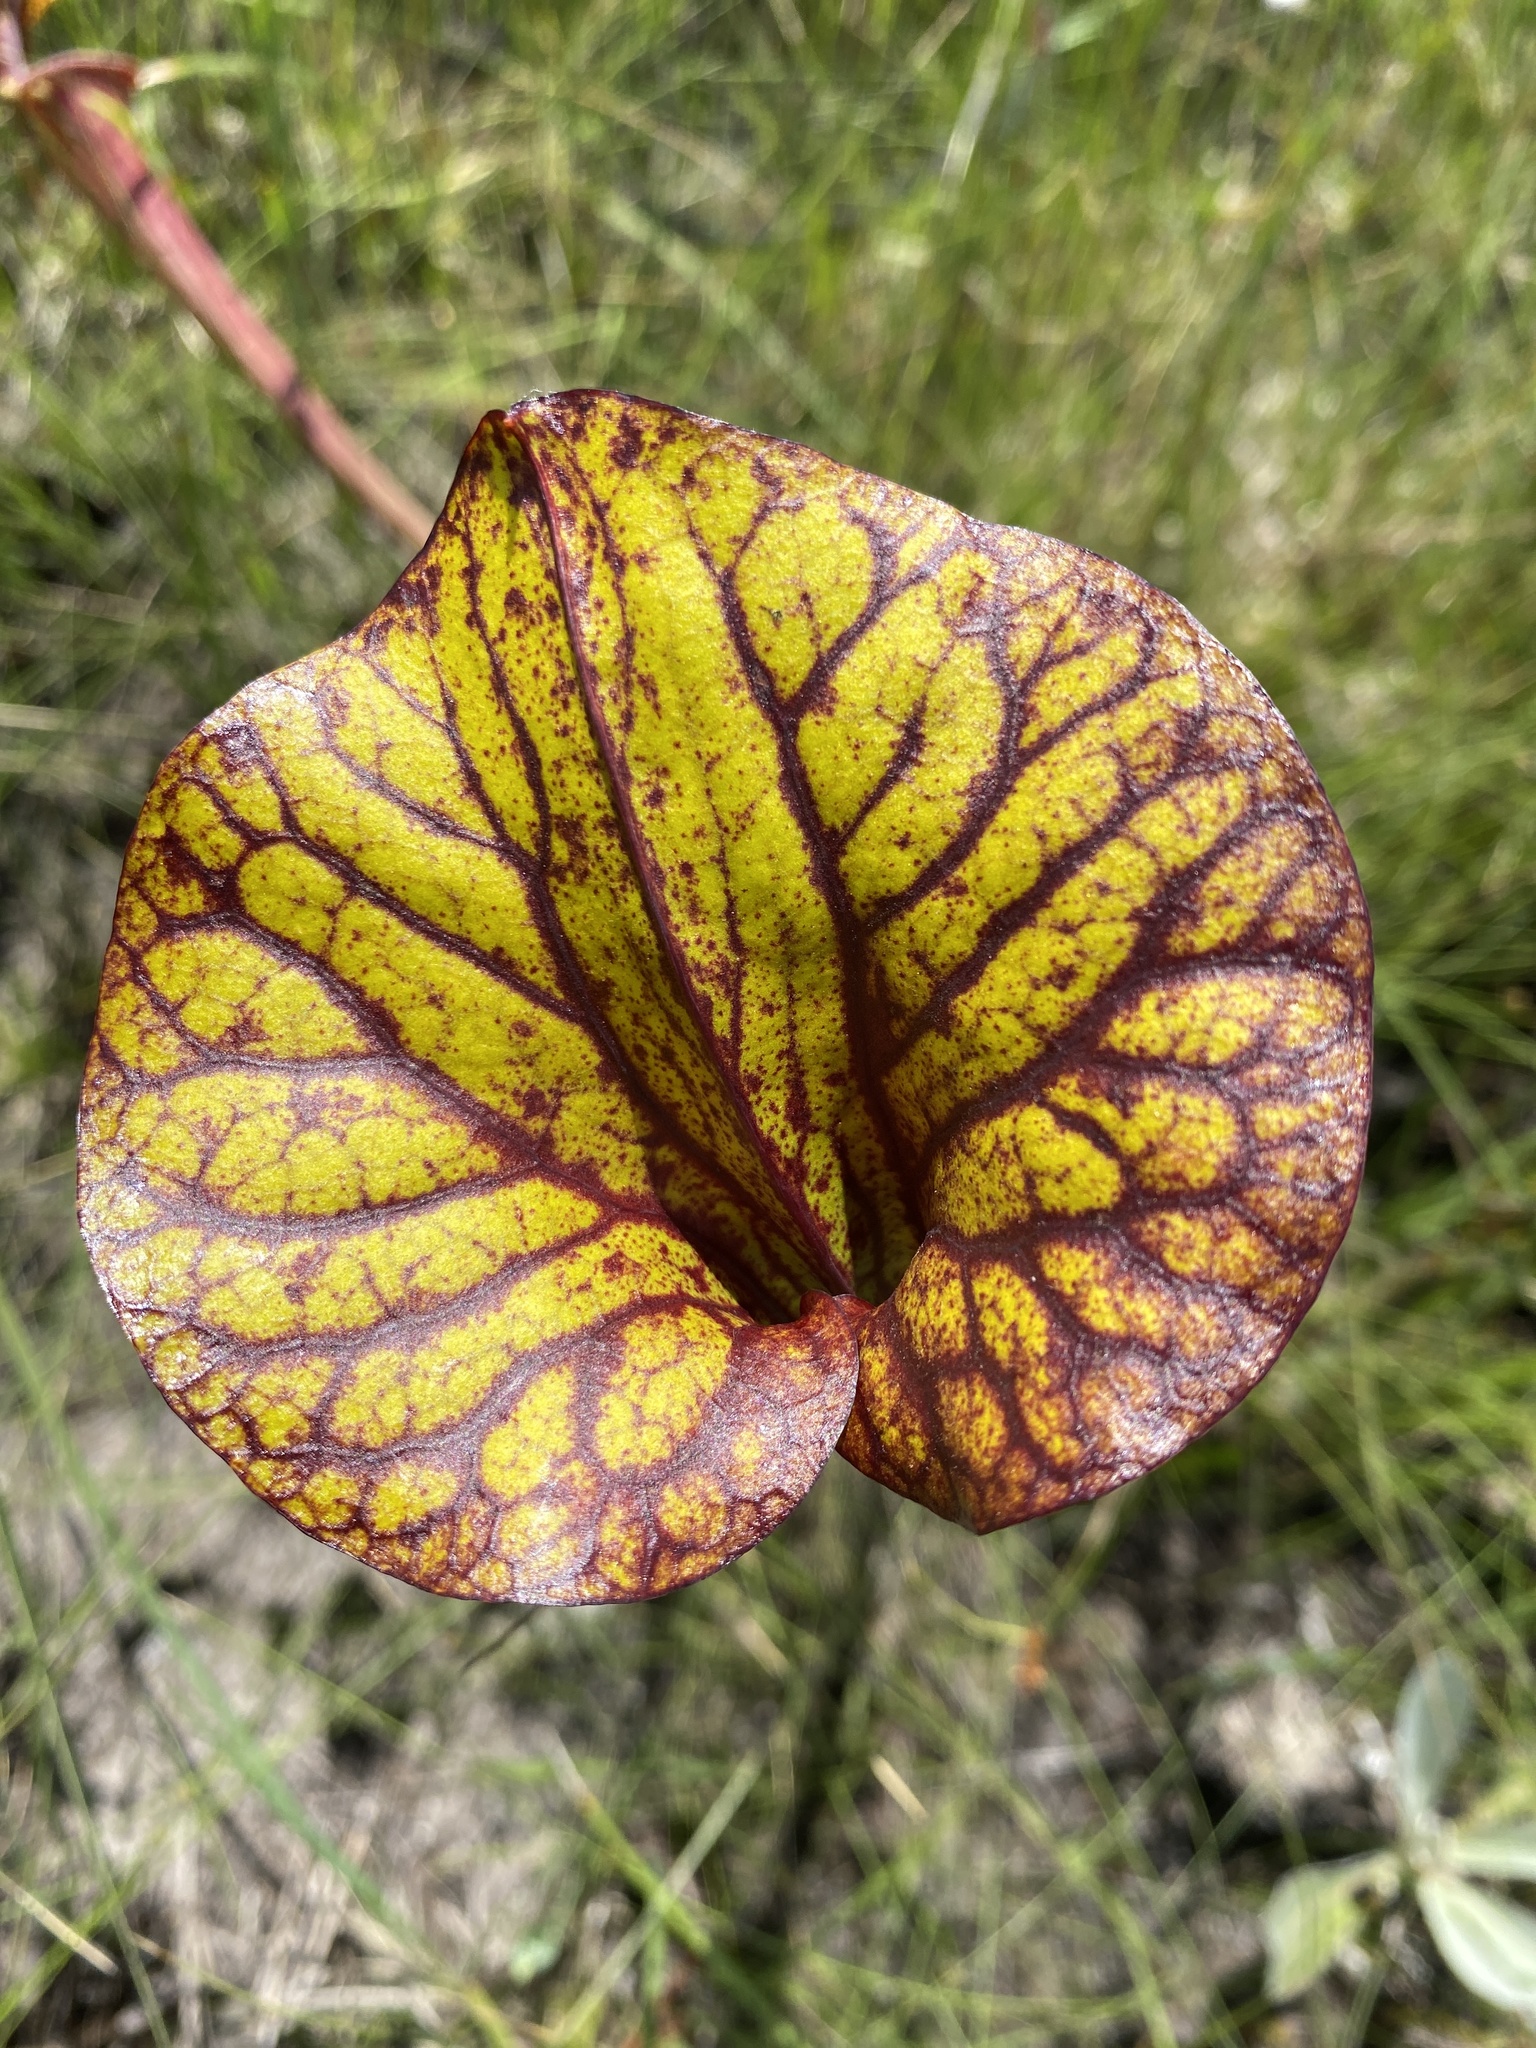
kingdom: Plantae
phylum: Tracheophyta
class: Magnoliopsida
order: Ericales
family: Sarraceniaceae
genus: Sarracenia
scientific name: Sarracenia flava
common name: Trumpets
